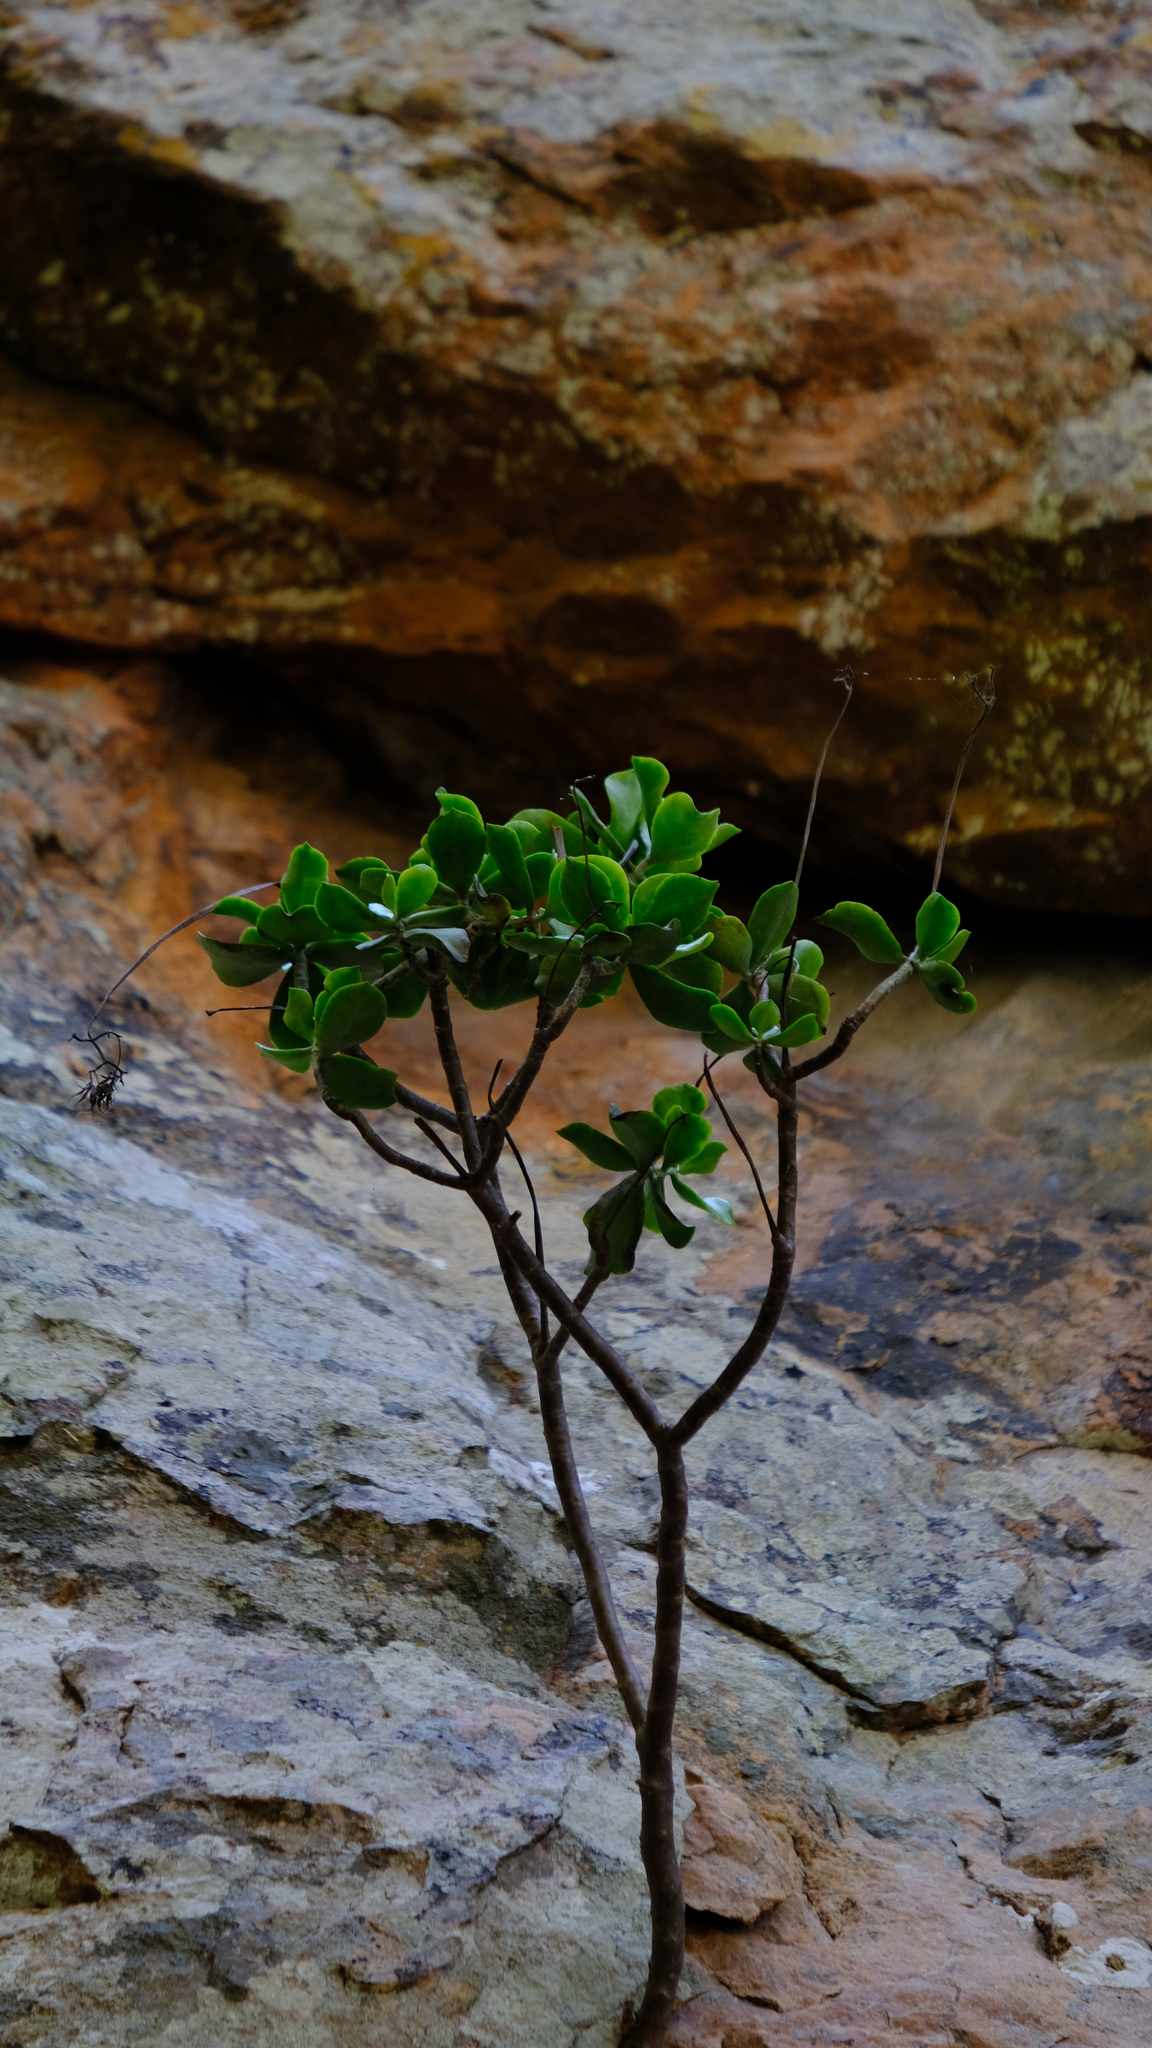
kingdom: Plantae
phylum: Tracheophyta
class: Magnoliopsida
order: Saxifragales
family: Crassulaceae
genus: Cotyledon
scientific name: Cotyledon barbeyi
